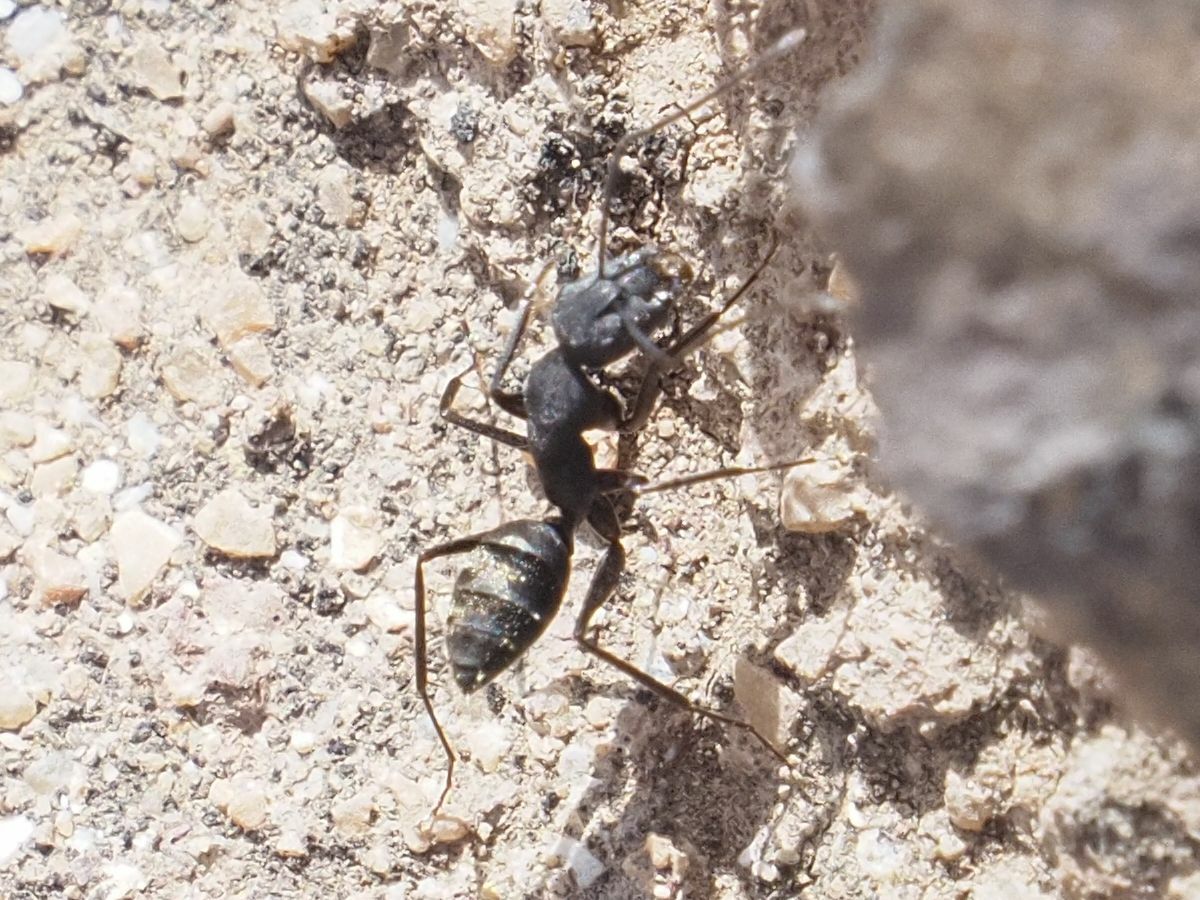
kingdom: Animalia
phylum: Arthropoda
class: Insecta
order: Hymenoptera
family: Formicidae
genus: Camponotus
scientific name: Camponotus feai
